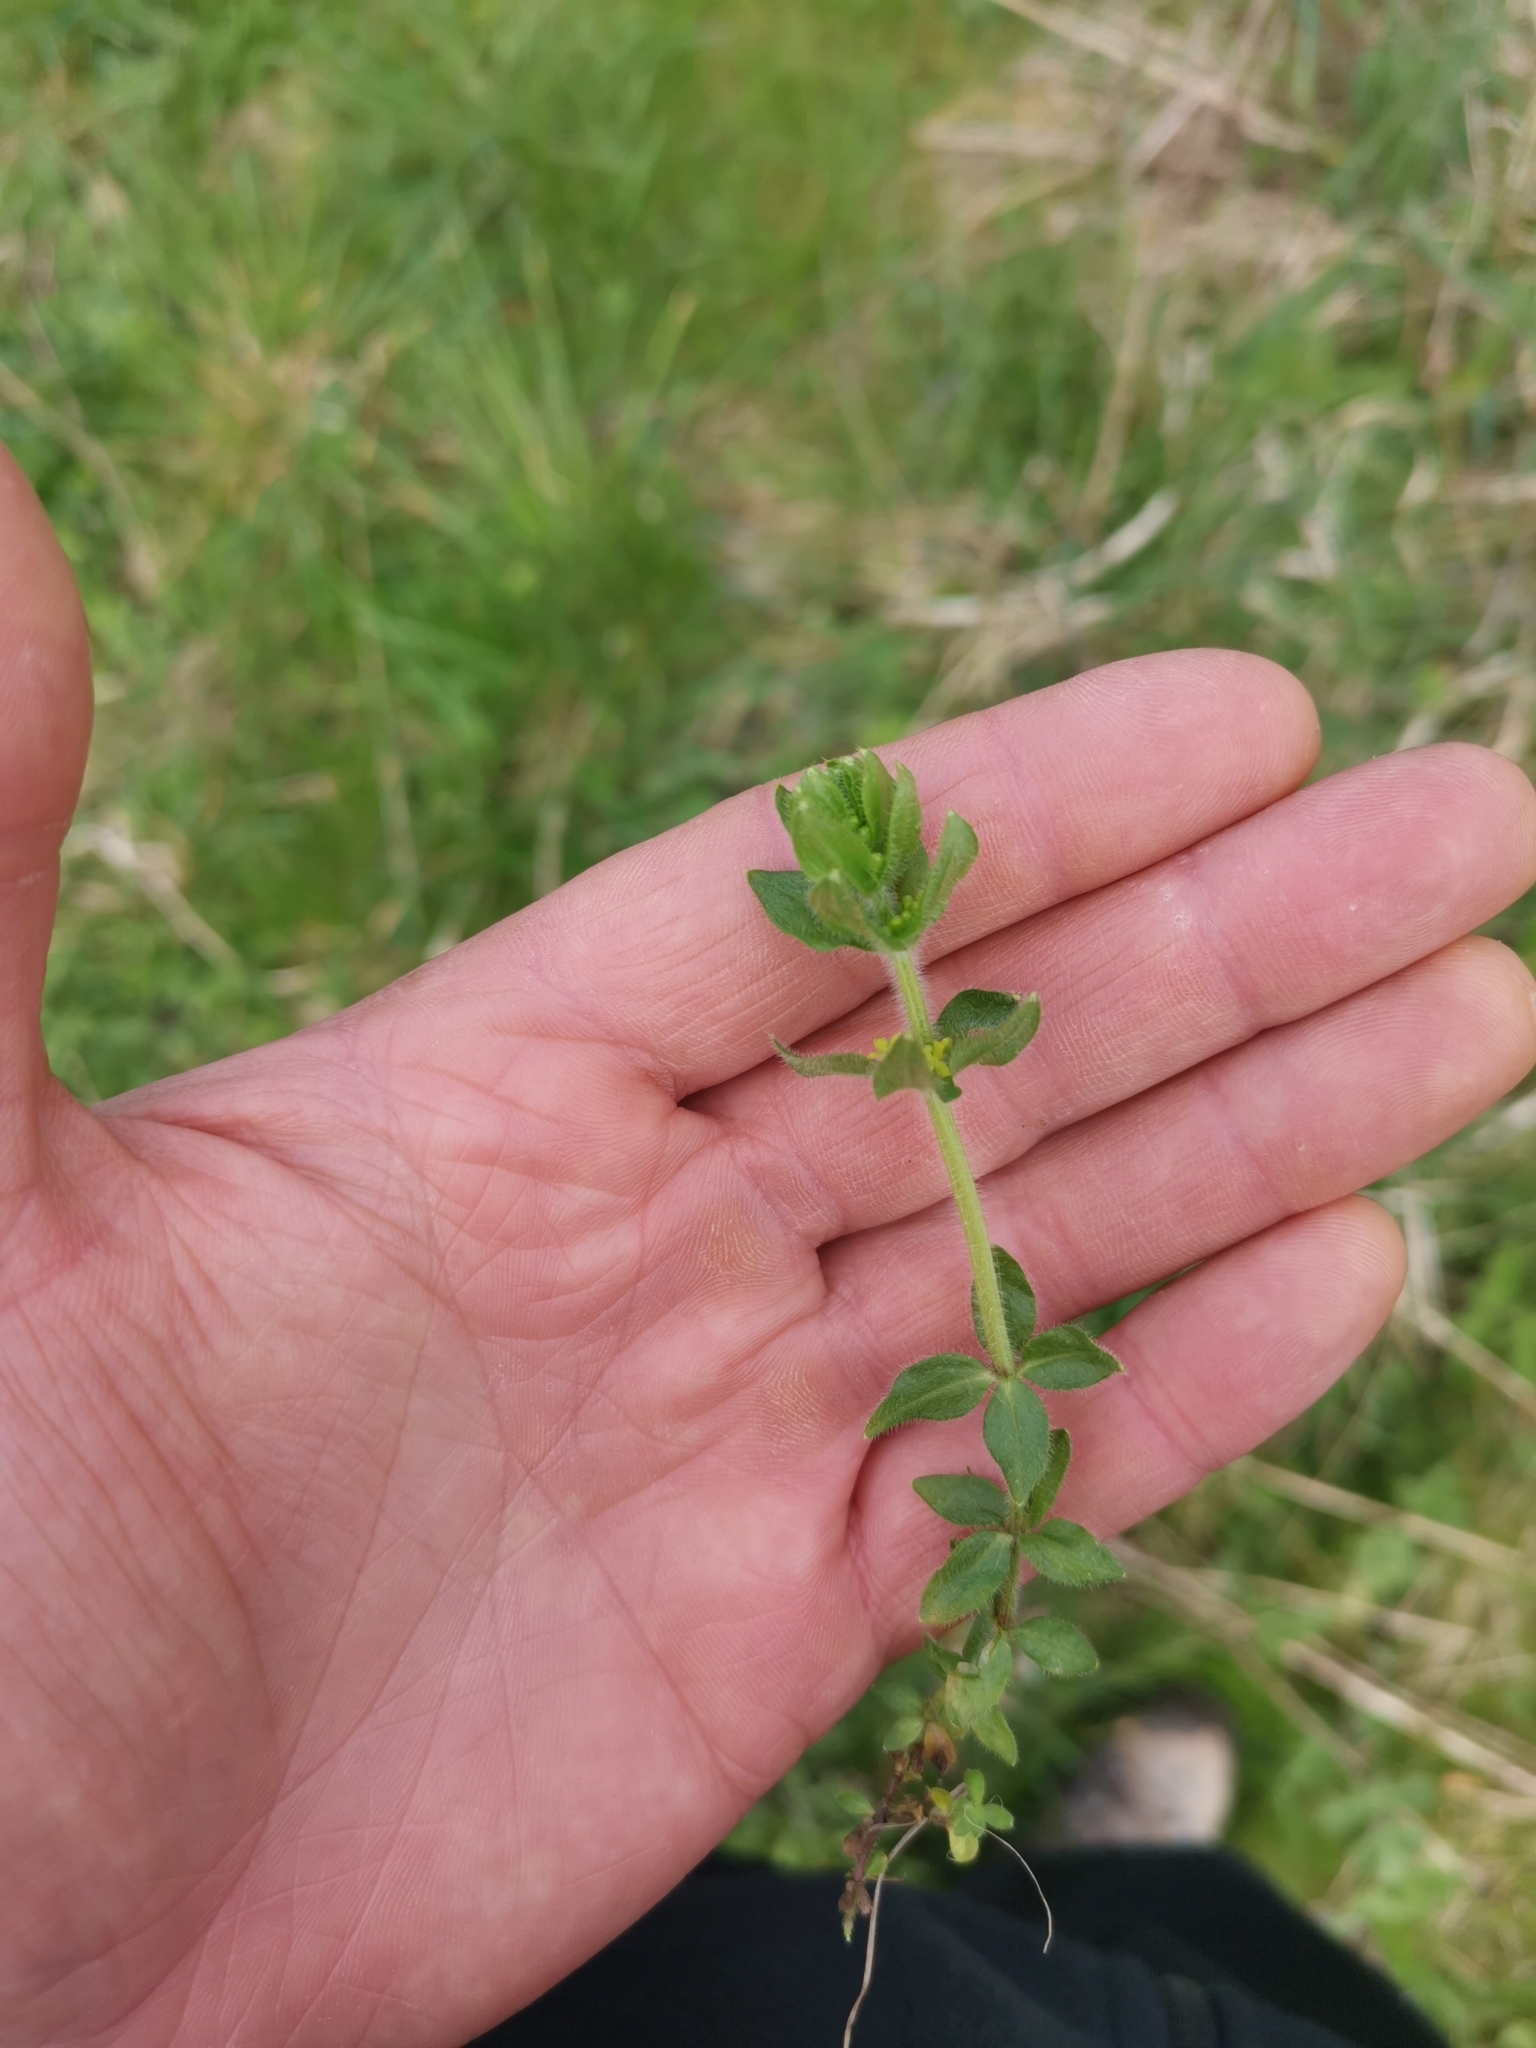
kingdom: Plantae
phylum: Tracheophyta
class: Magnoliopsida
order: Gentianales
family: Rubiaceae
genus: Cruciata
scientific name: Cruciata laevipes
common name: Crosswort
